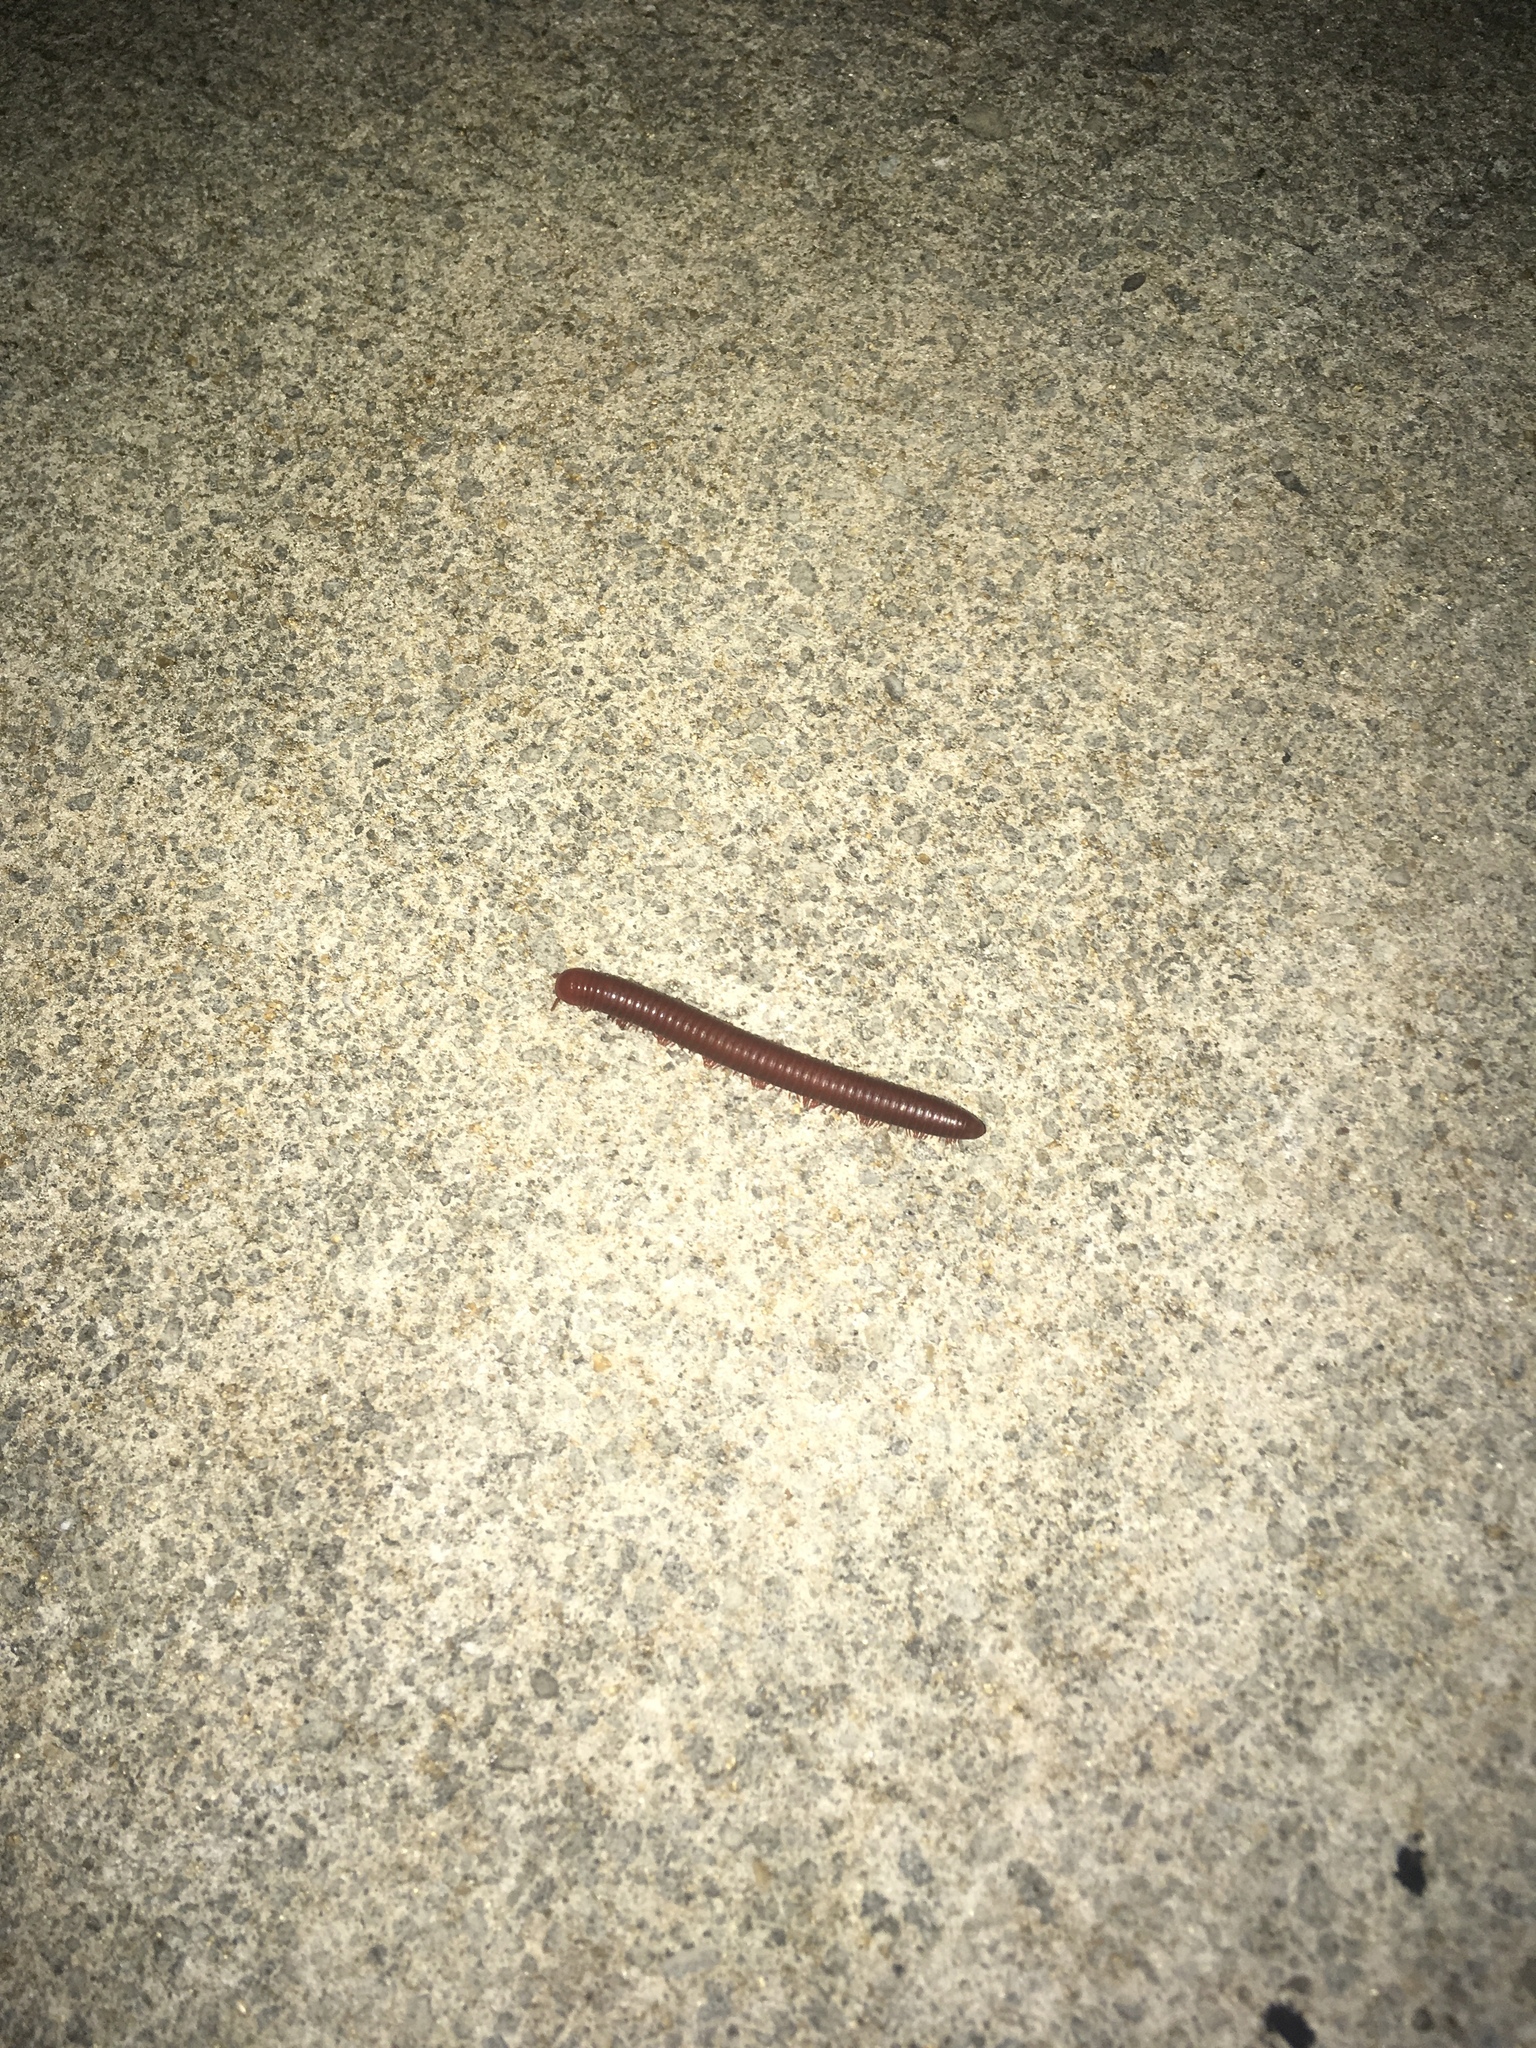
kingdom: Animalia
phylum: Arthropoda
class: Diplopoda
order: Spirobolida
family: Pachybolidae
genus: Trigoniulus
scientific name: Trigoniulus corallinus
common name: Millipede
